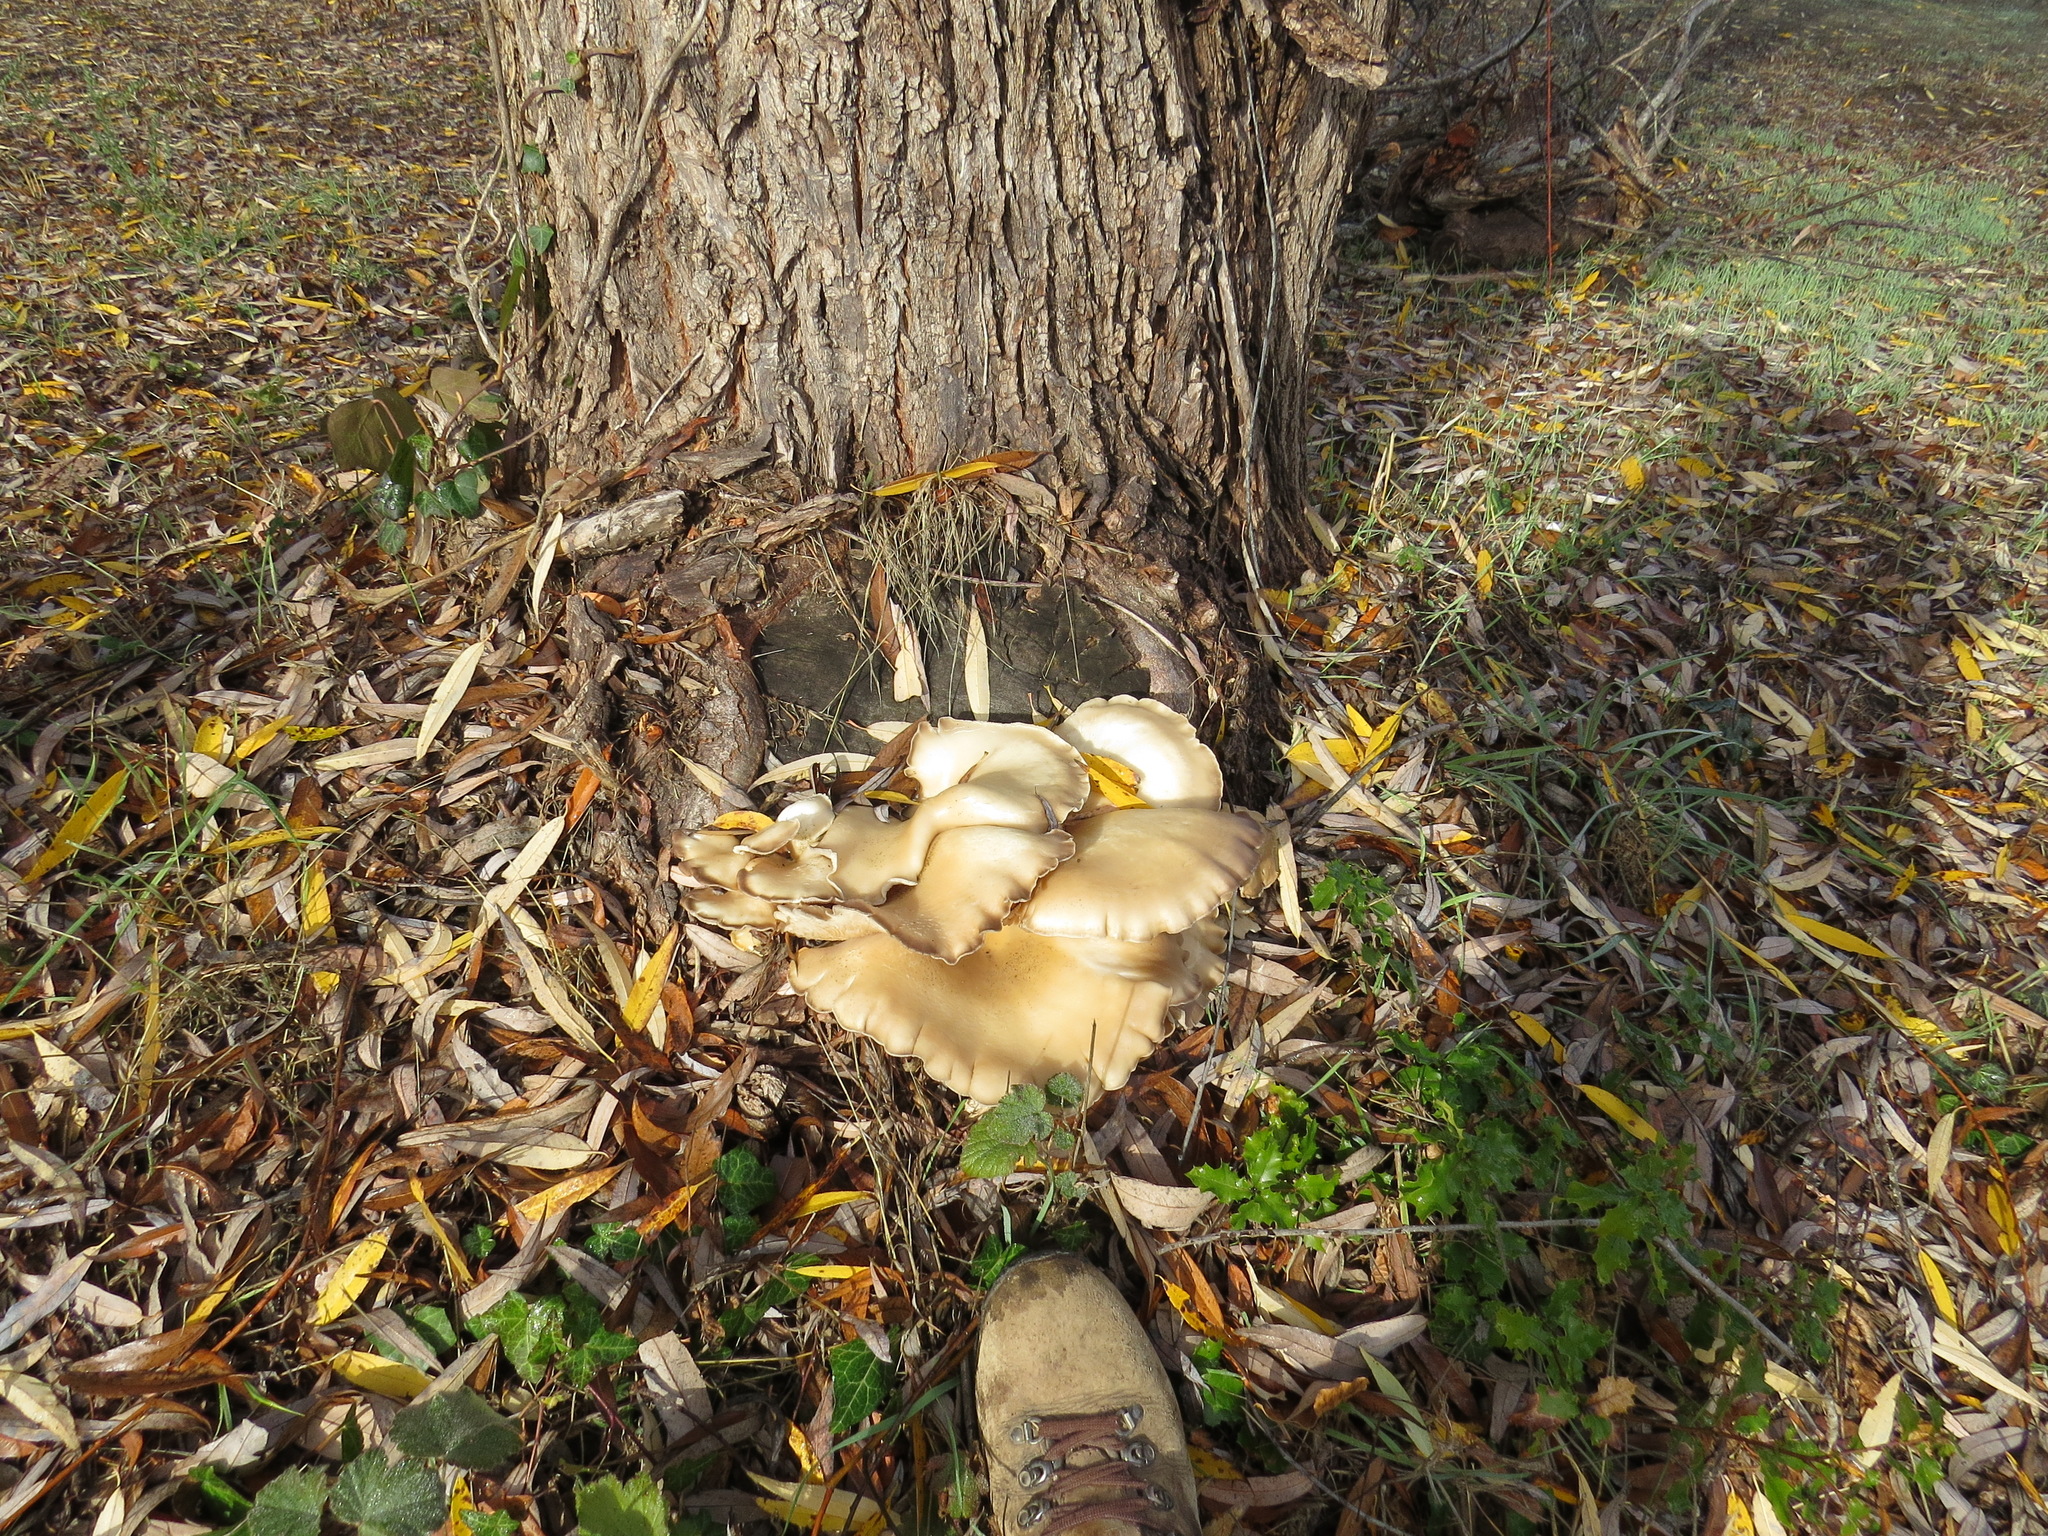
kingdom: Fungi
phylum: Basidiomycota
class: Agaricomycetes
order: Agaricales
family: Pleurotaceae
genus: Pleurotus
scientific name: Pleurotus ostreatus
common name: Oyster mushroom
